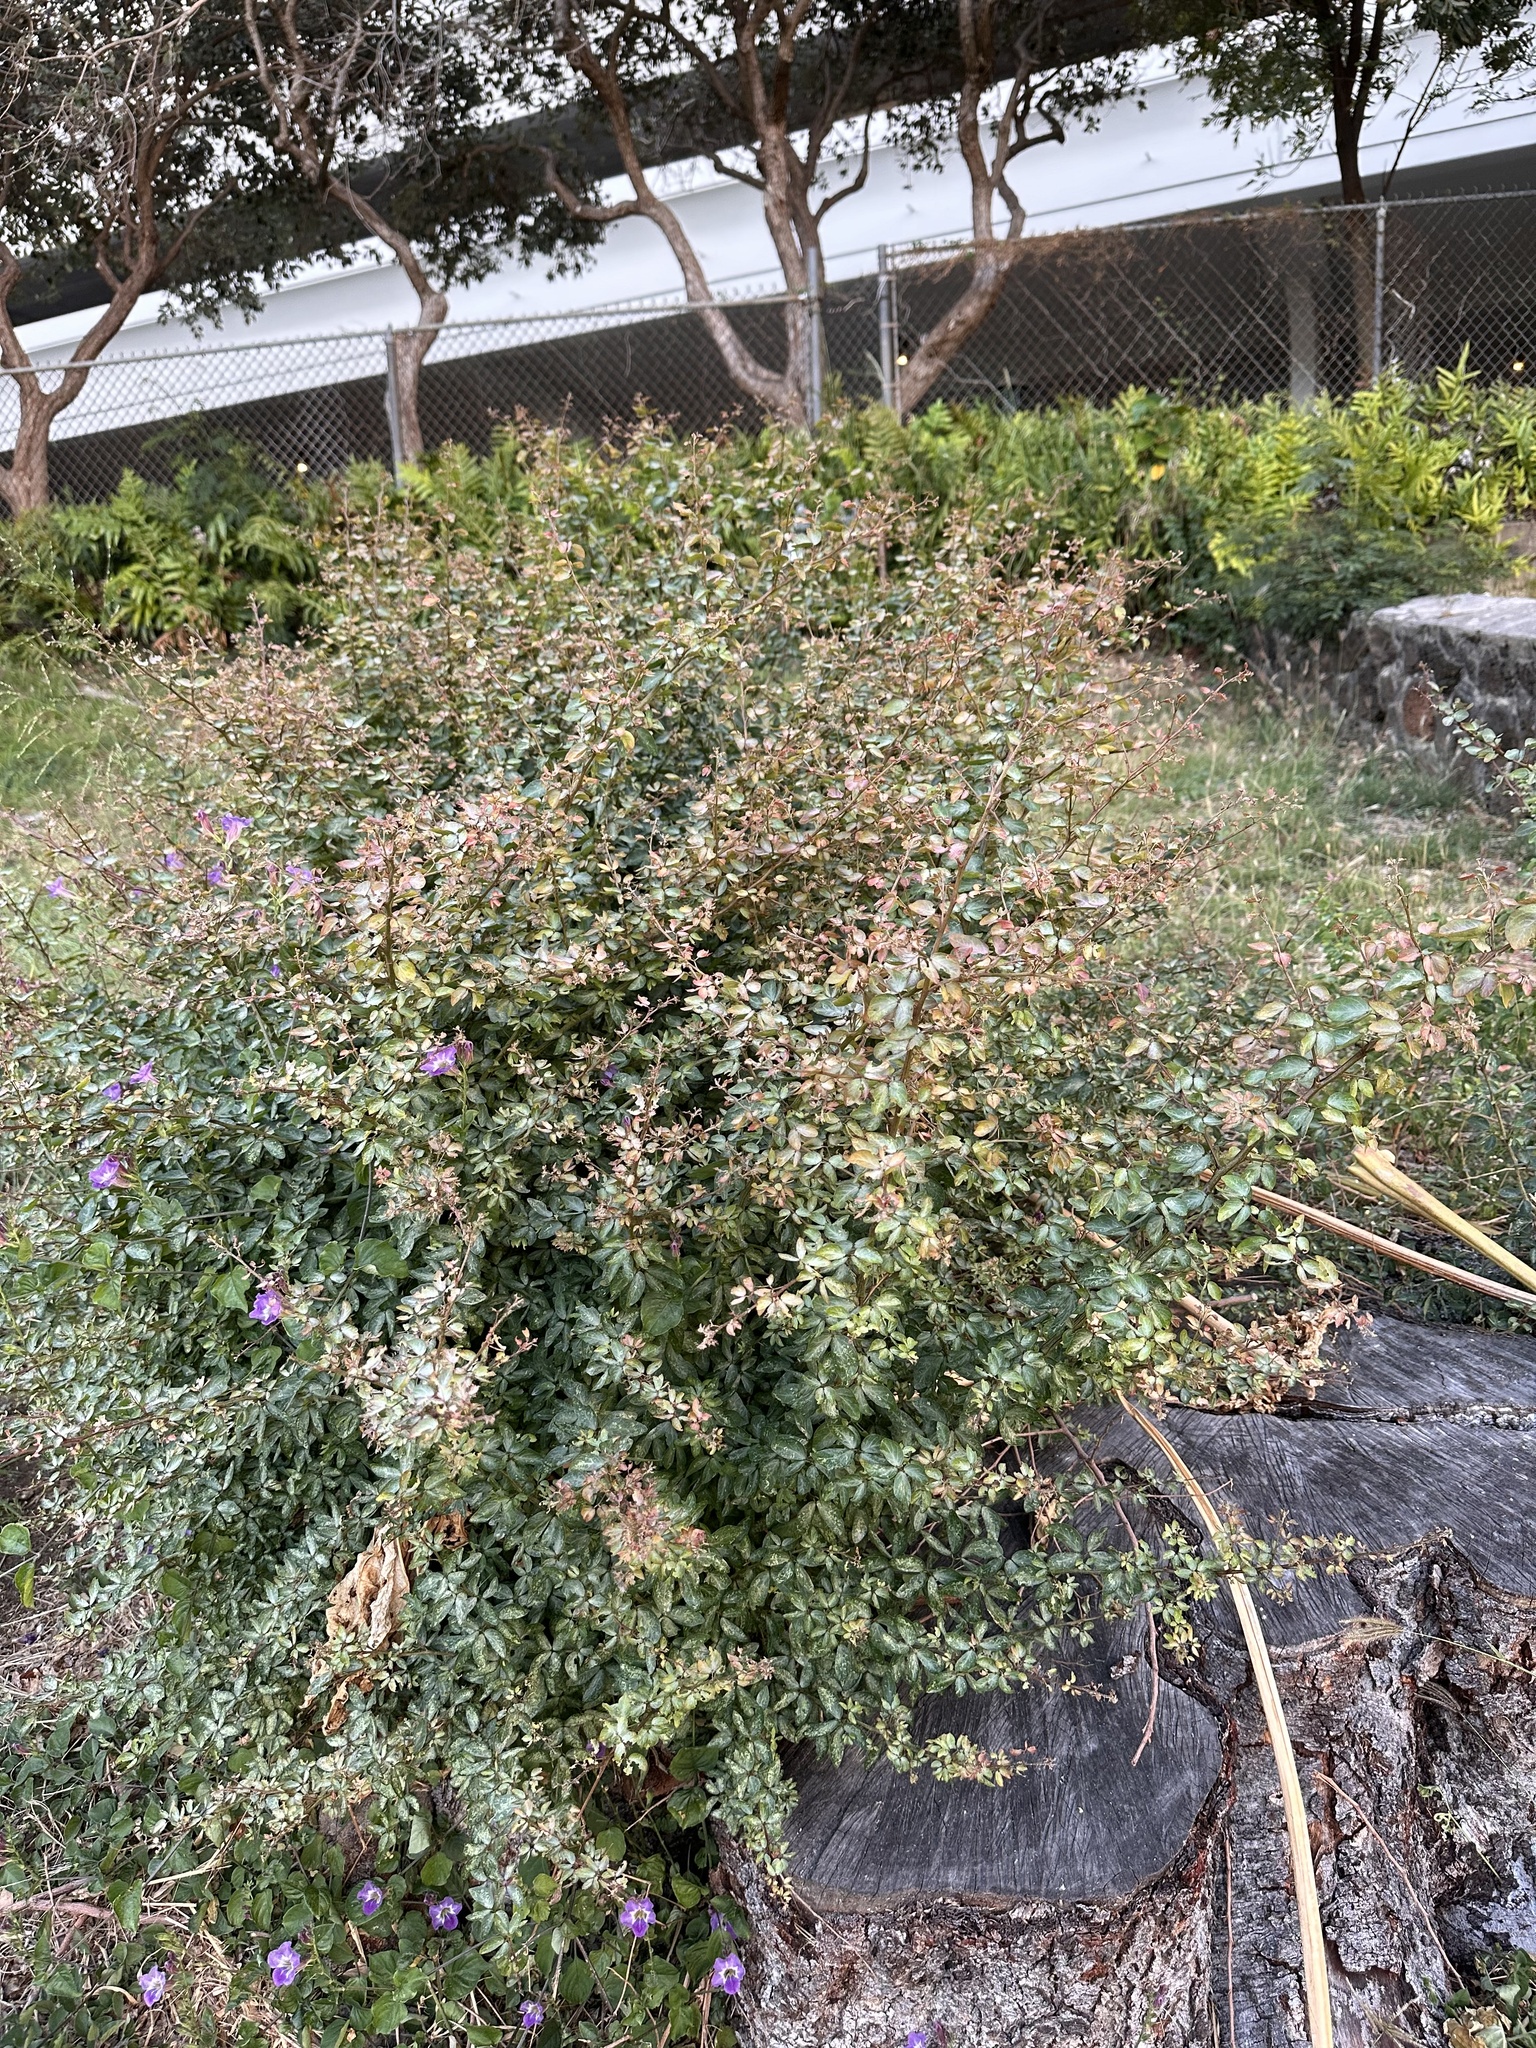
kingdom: Plantae
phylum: Tracheophyta
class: Magnoliopsida
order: Fabales
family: Fabaceae
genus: Pithecellobium
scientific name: Pithecellobium dulce
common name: Monkeypod
